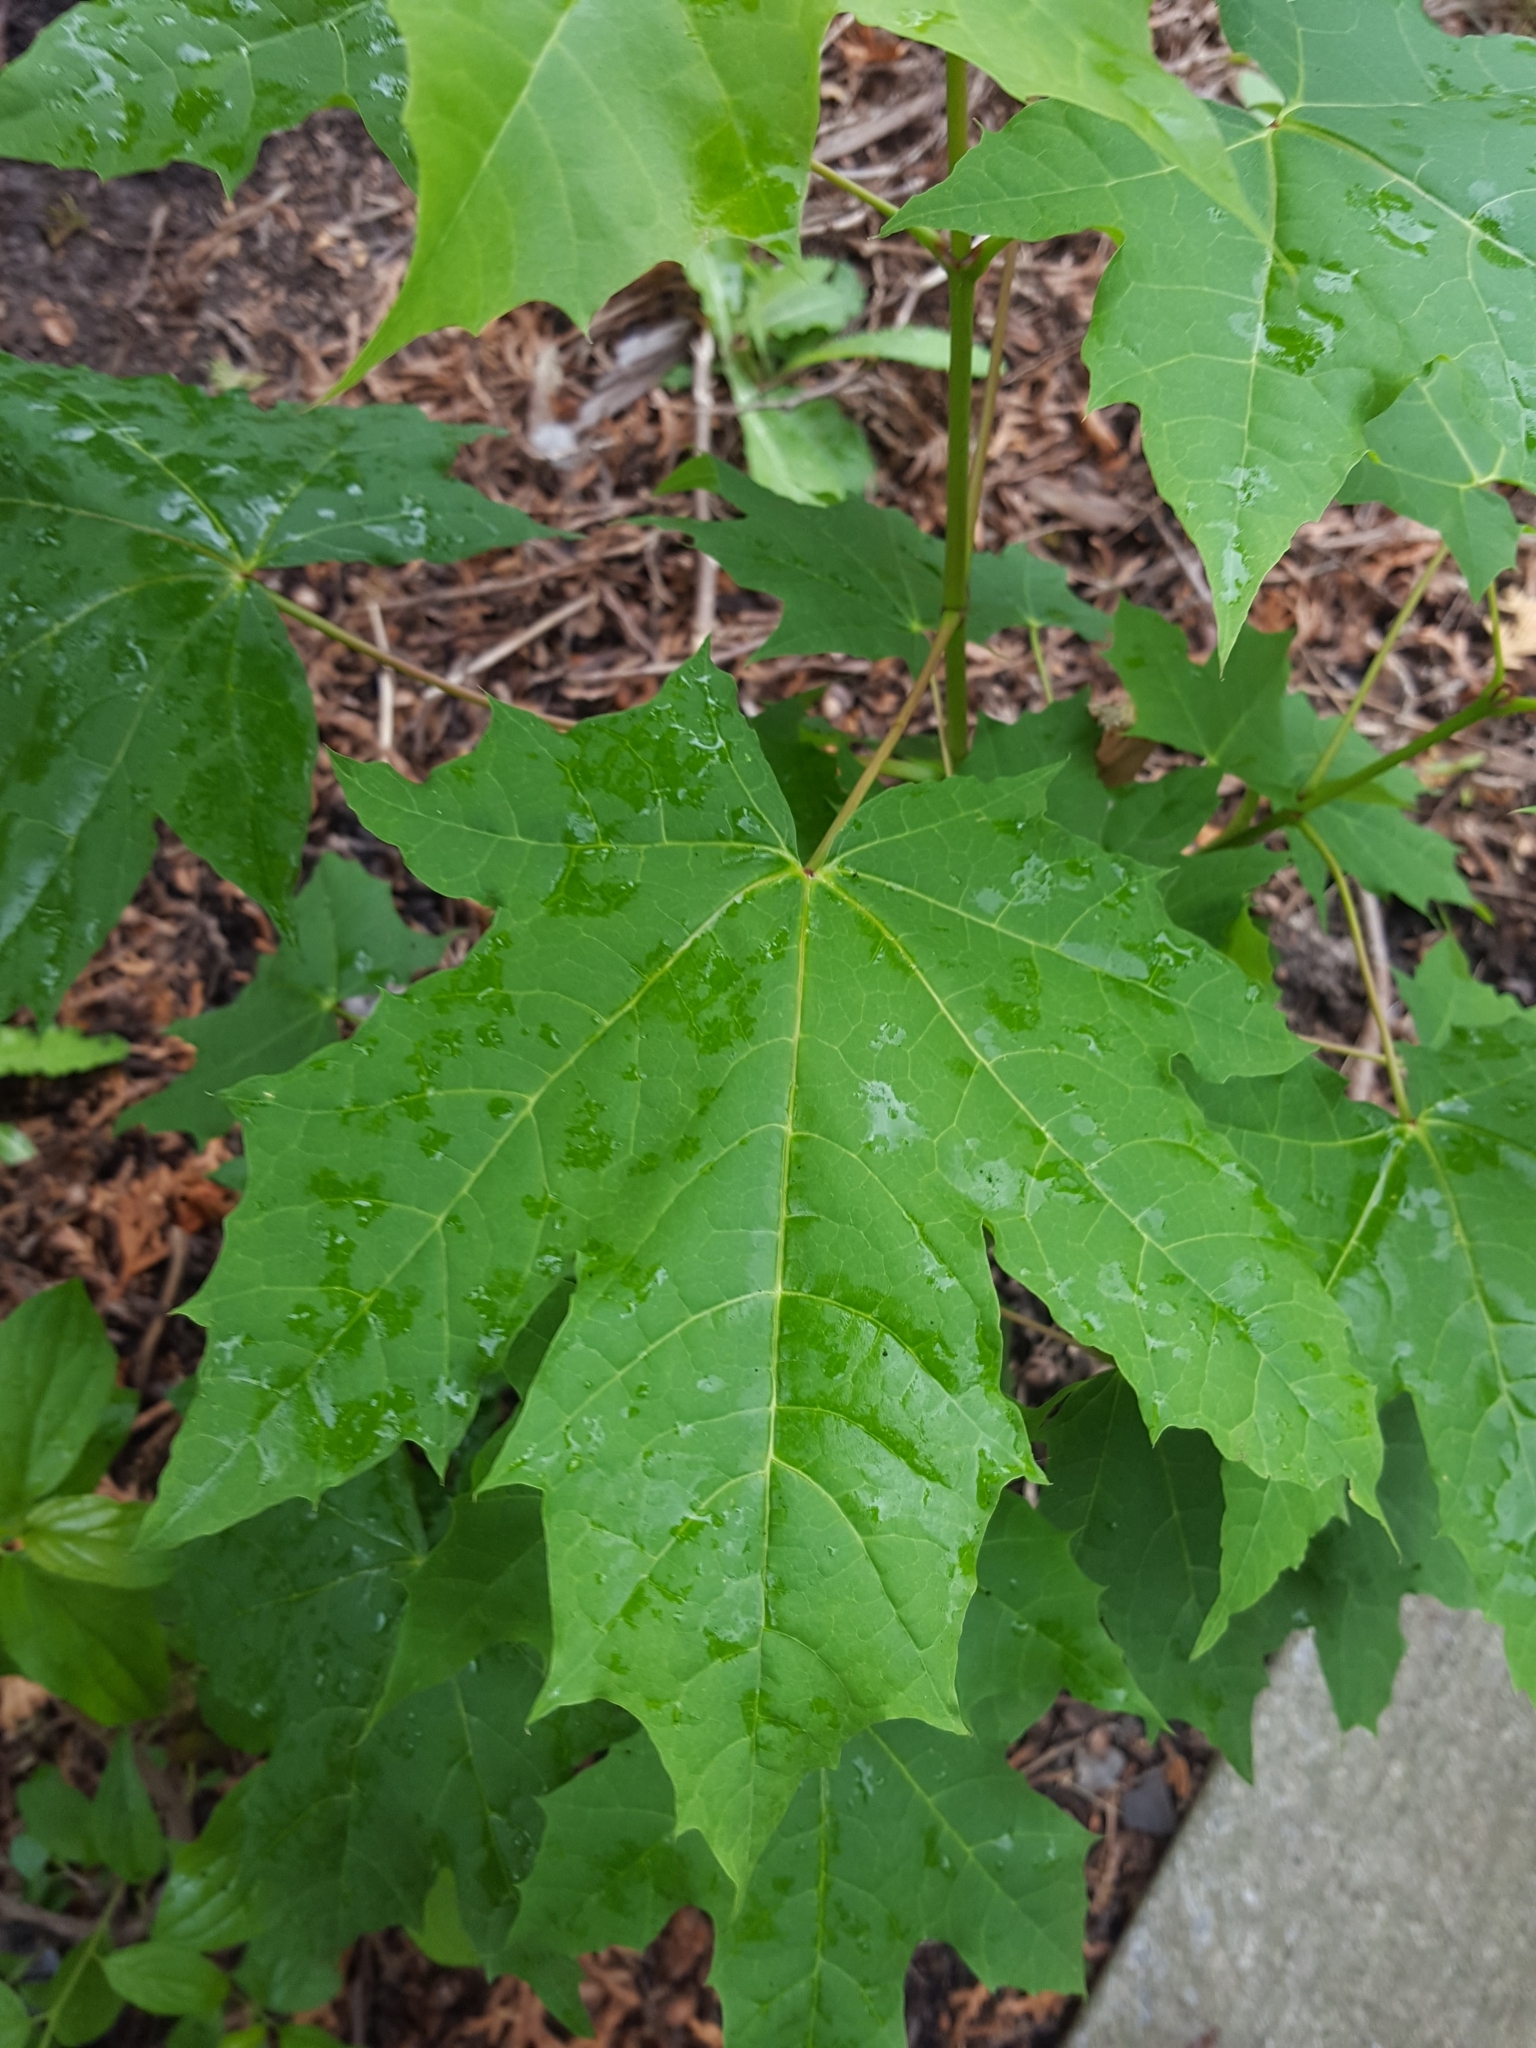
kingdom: Plantae
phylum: Tracheophyta
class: Magnoliopsida
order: Sapindales
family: Sapindaceae
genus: Acer
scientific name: Acer platanoides
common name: Norway maple
